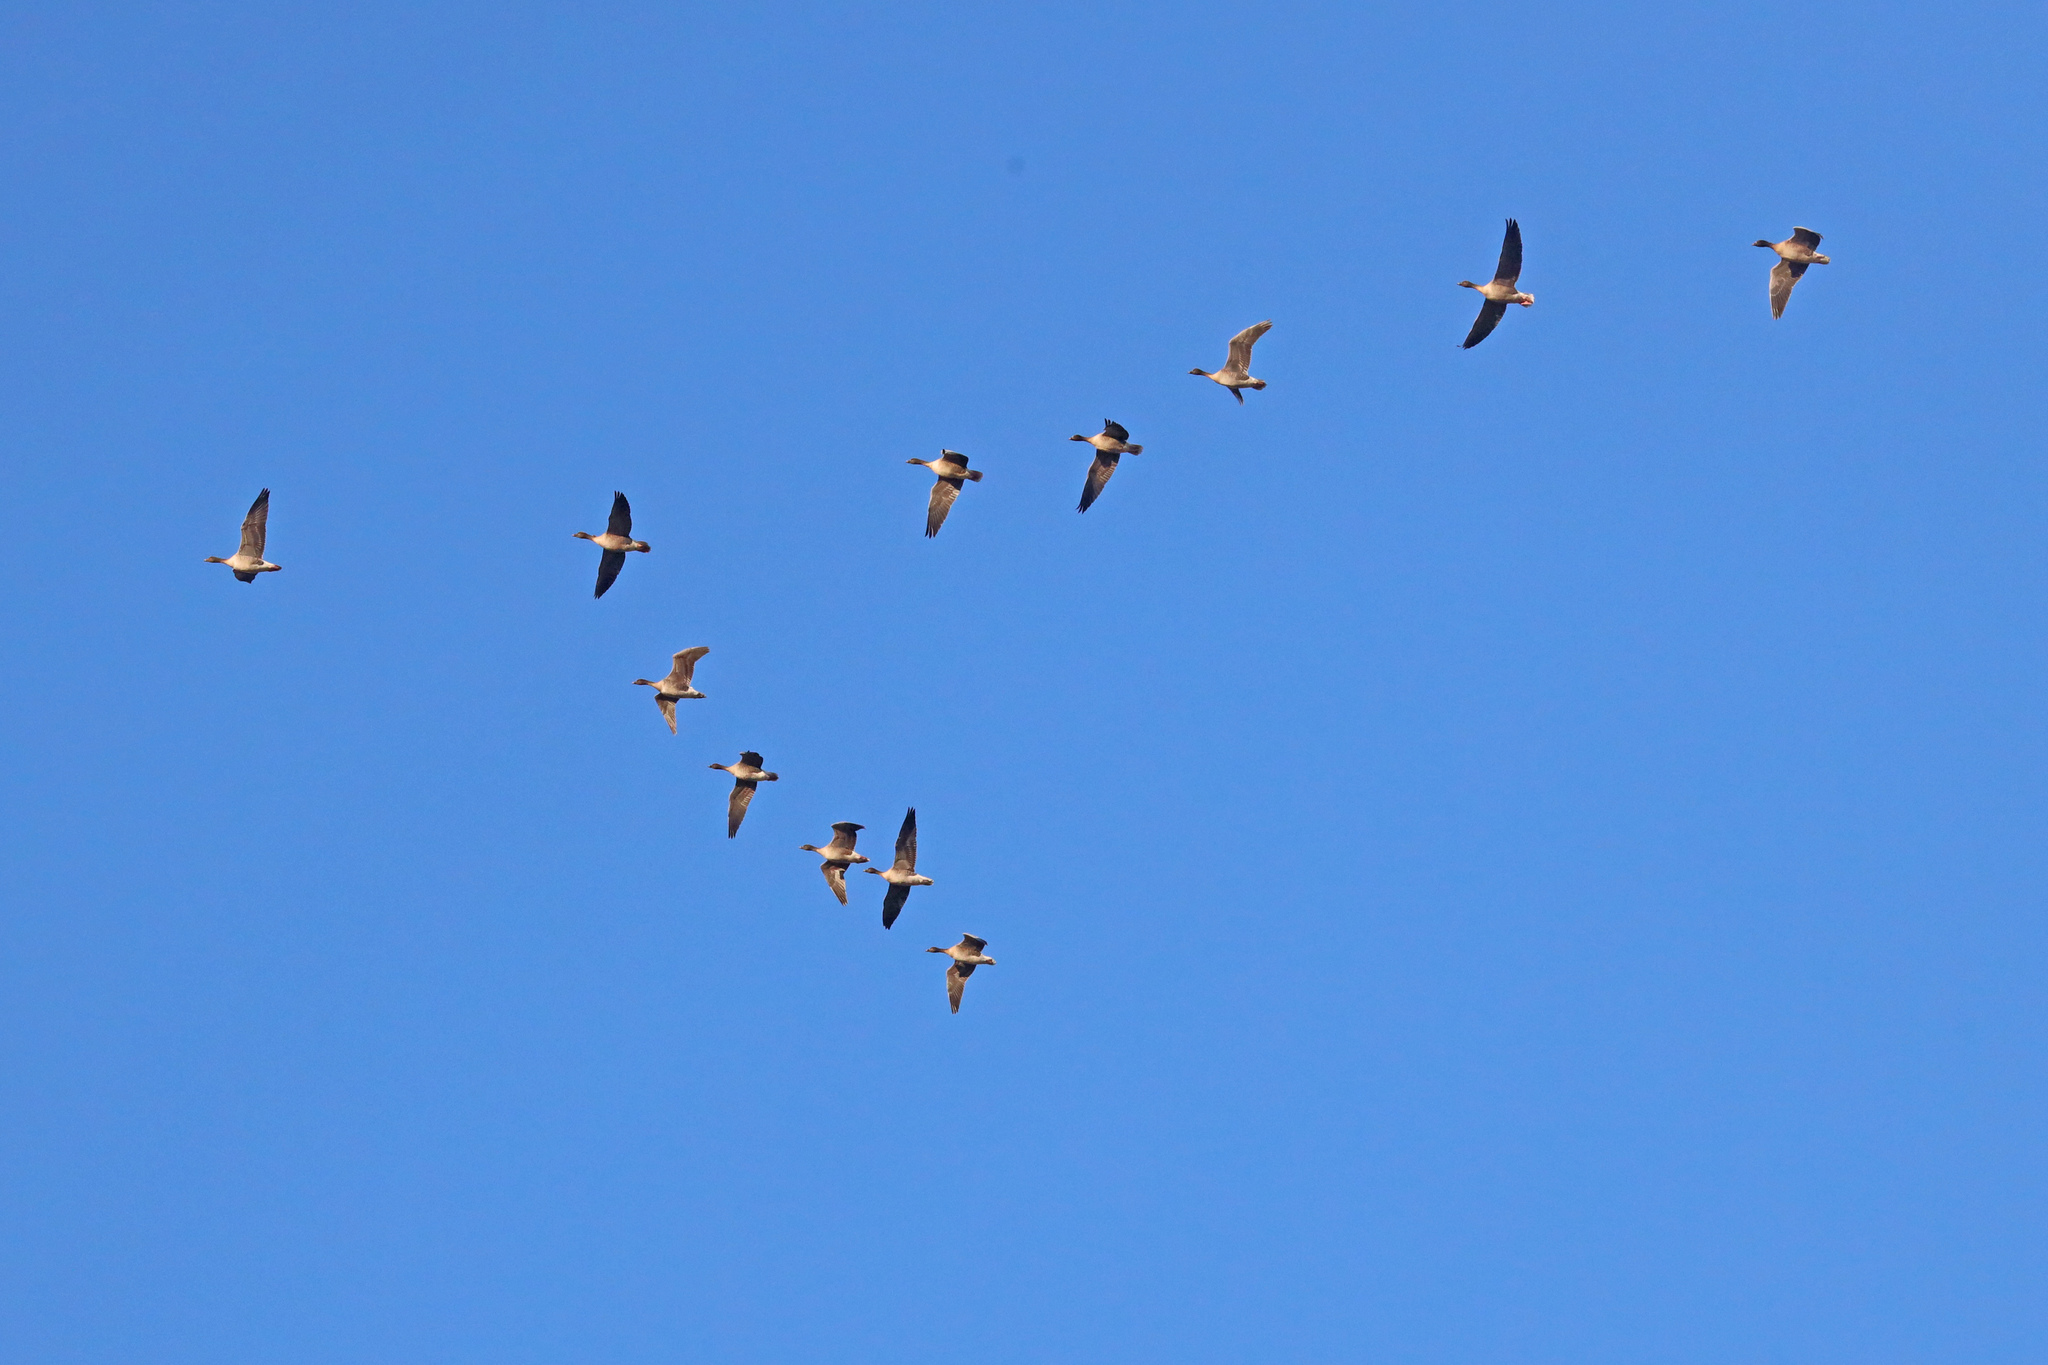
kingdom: Animalia
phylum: Chordata
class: Aves
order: Anseriformes
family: Anatidae
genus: Anser
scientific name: Anser brachyrhynchus
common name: Pink-footed goose
